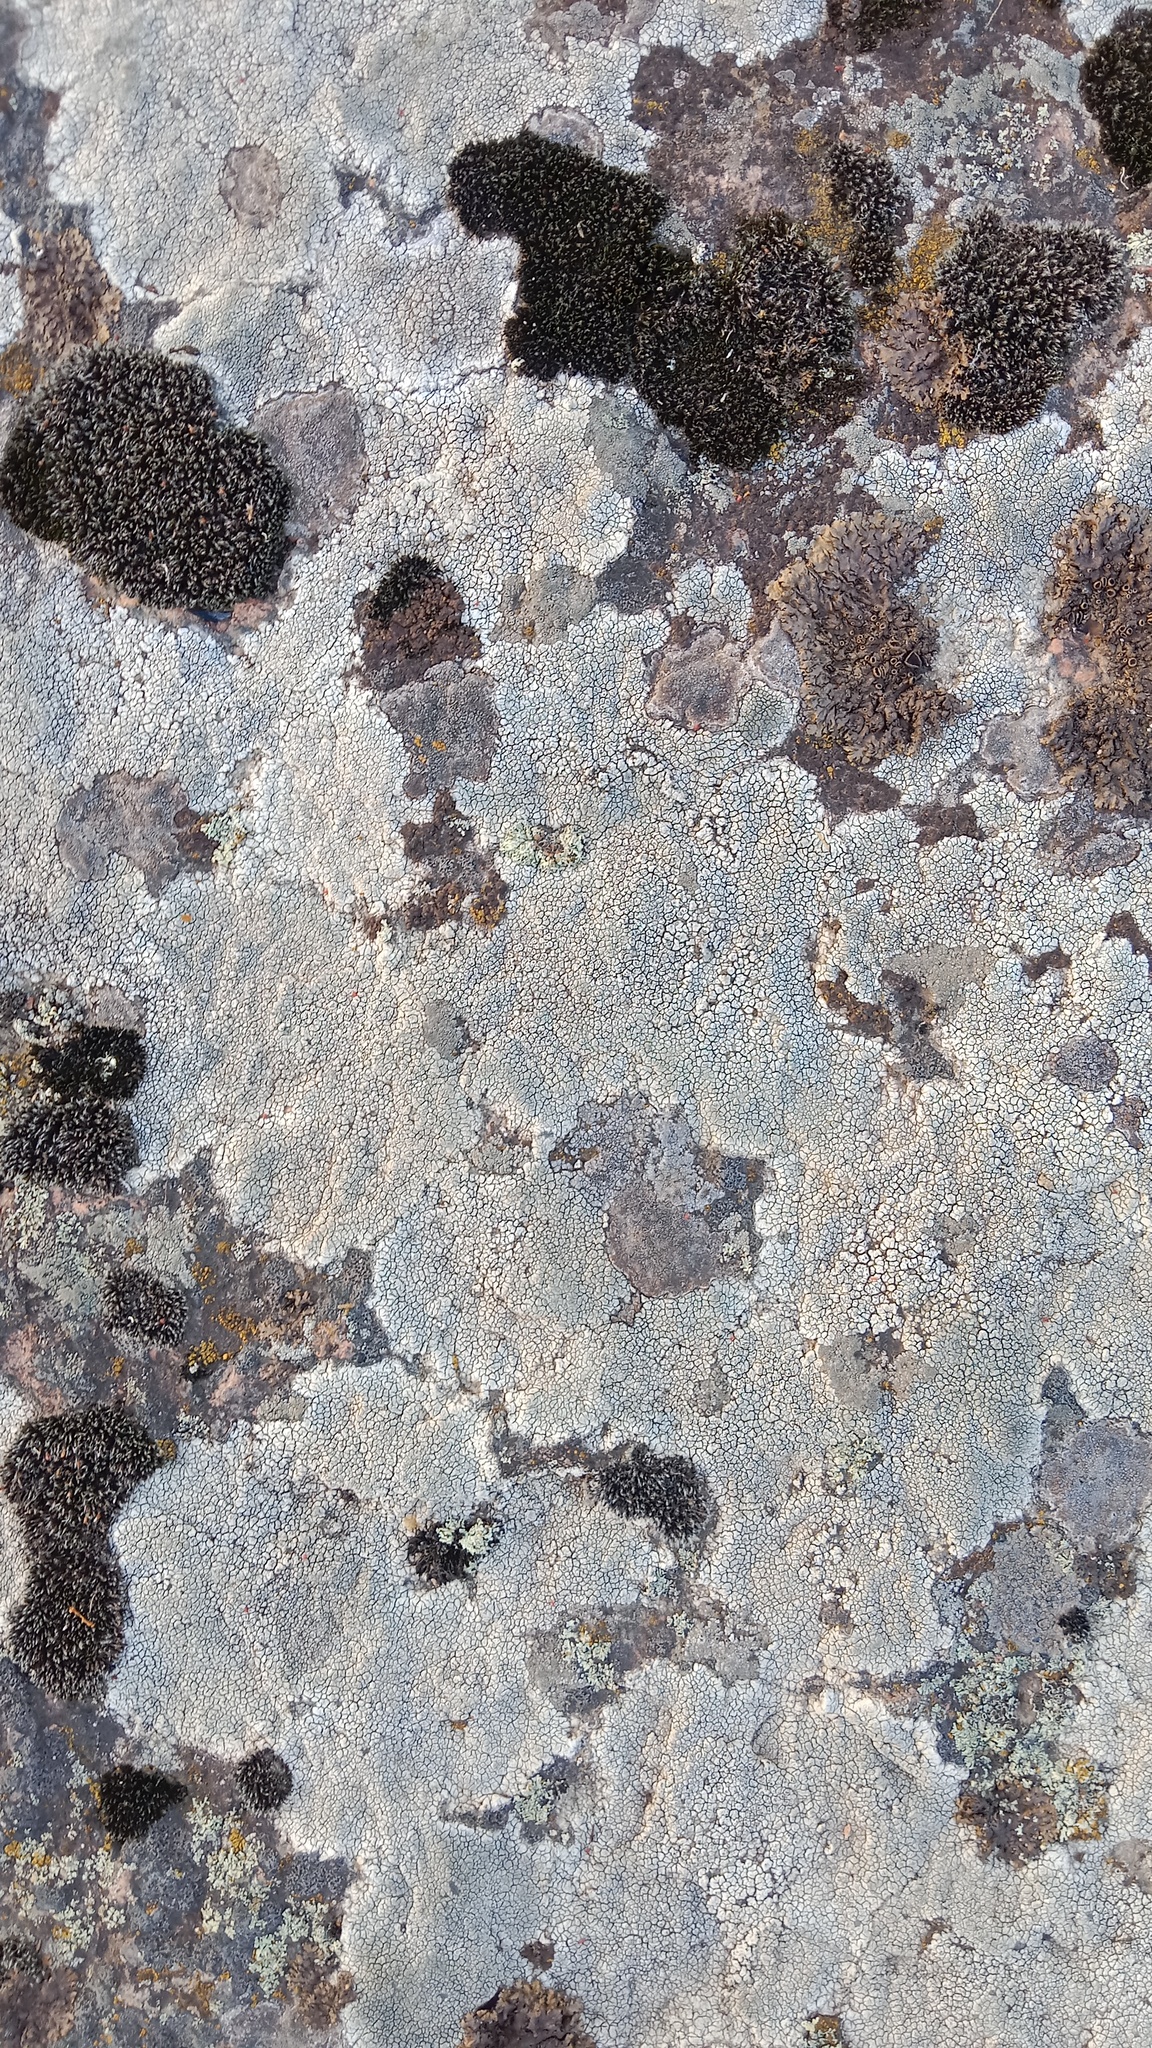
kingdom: Fungi
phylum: Ascomycota
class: Lecanoromycetes
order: Pertusariales
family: Megasporaceae
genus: Aspiciliella
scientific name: Aspiciliella intermutans
